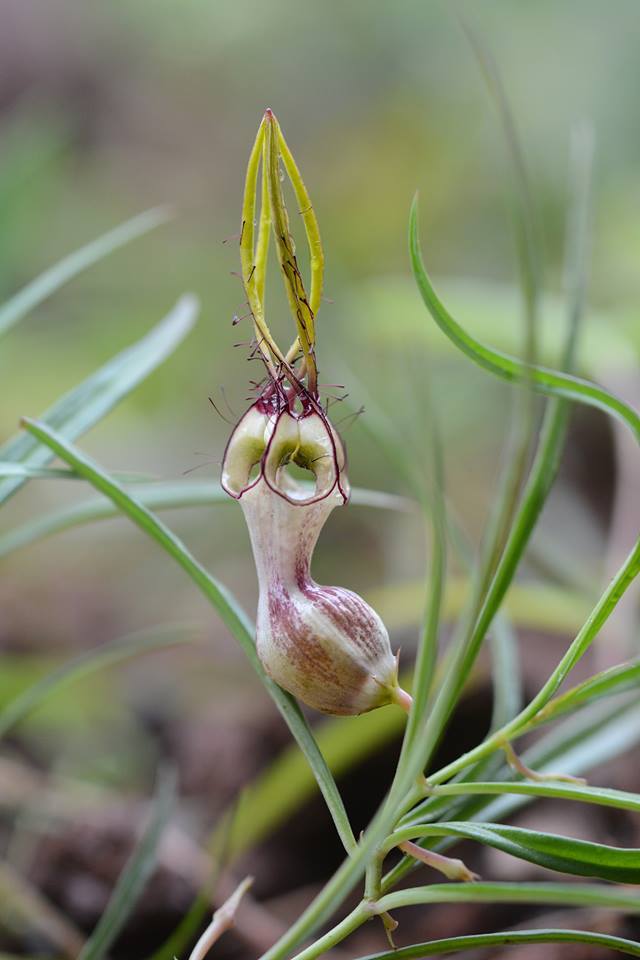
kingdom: Plantae
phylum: Tracheophyta
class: Magnoliopsida
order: Gentianales
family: Apocynaceae
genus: Ceropegia
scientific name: Ceropegia spiralis
